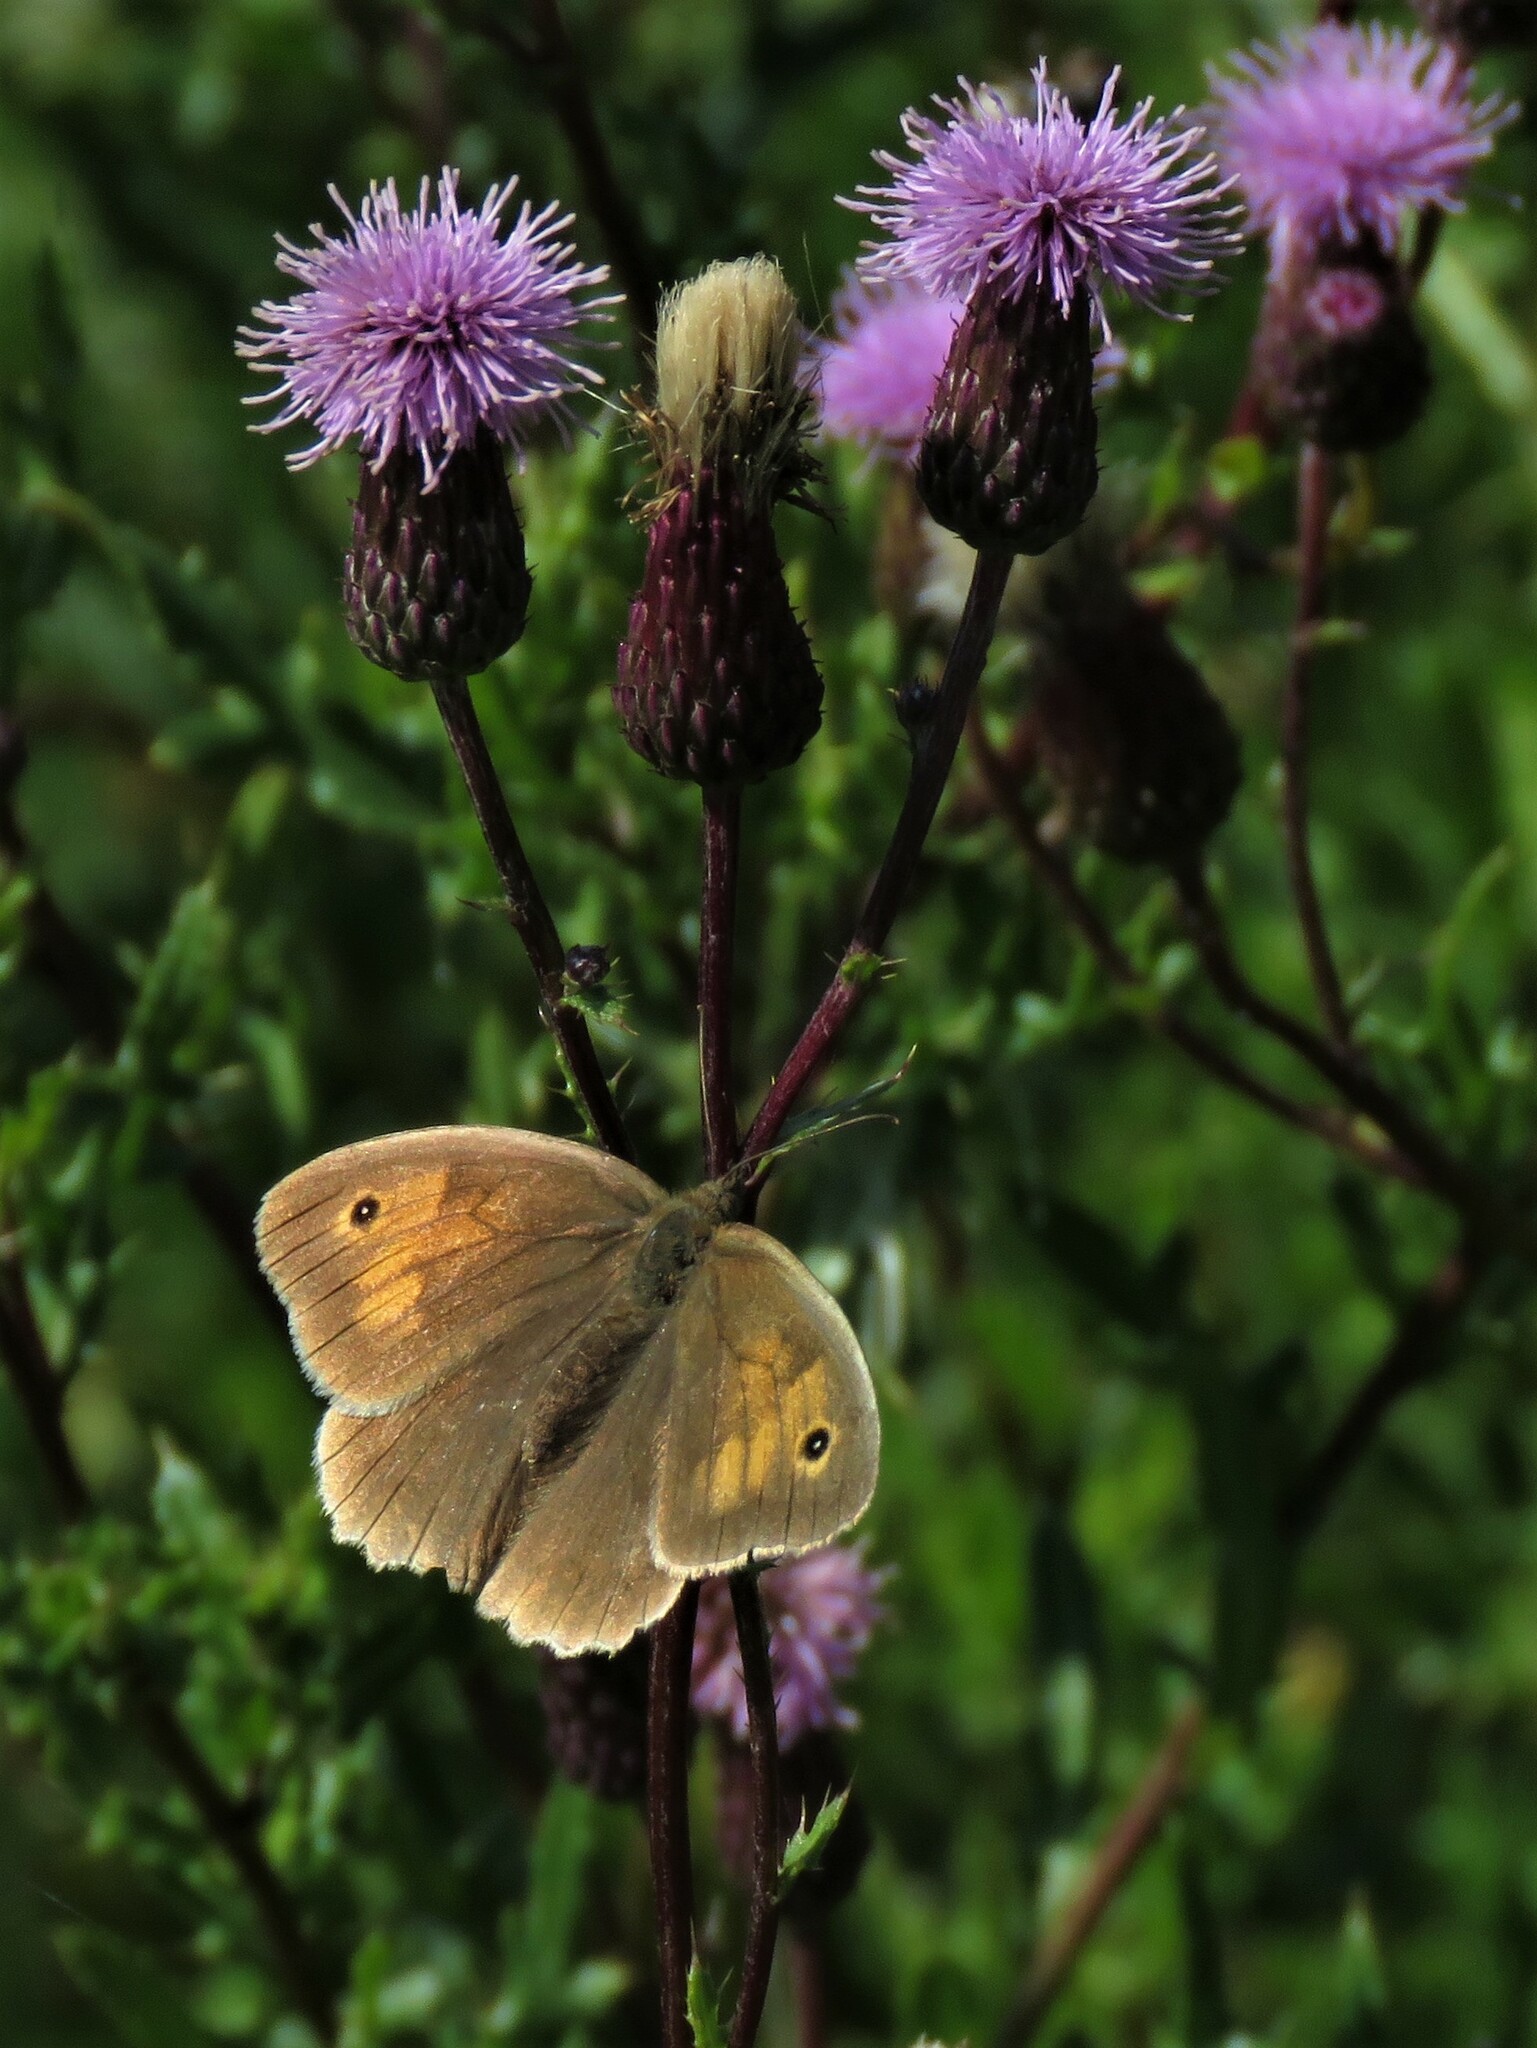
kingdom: Animalia
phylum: Arthropoda
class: Insecta
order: Lepidoptera
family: Nymphalidae
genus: Maniola
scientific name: Maniola jurtina
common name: Meadow brown
